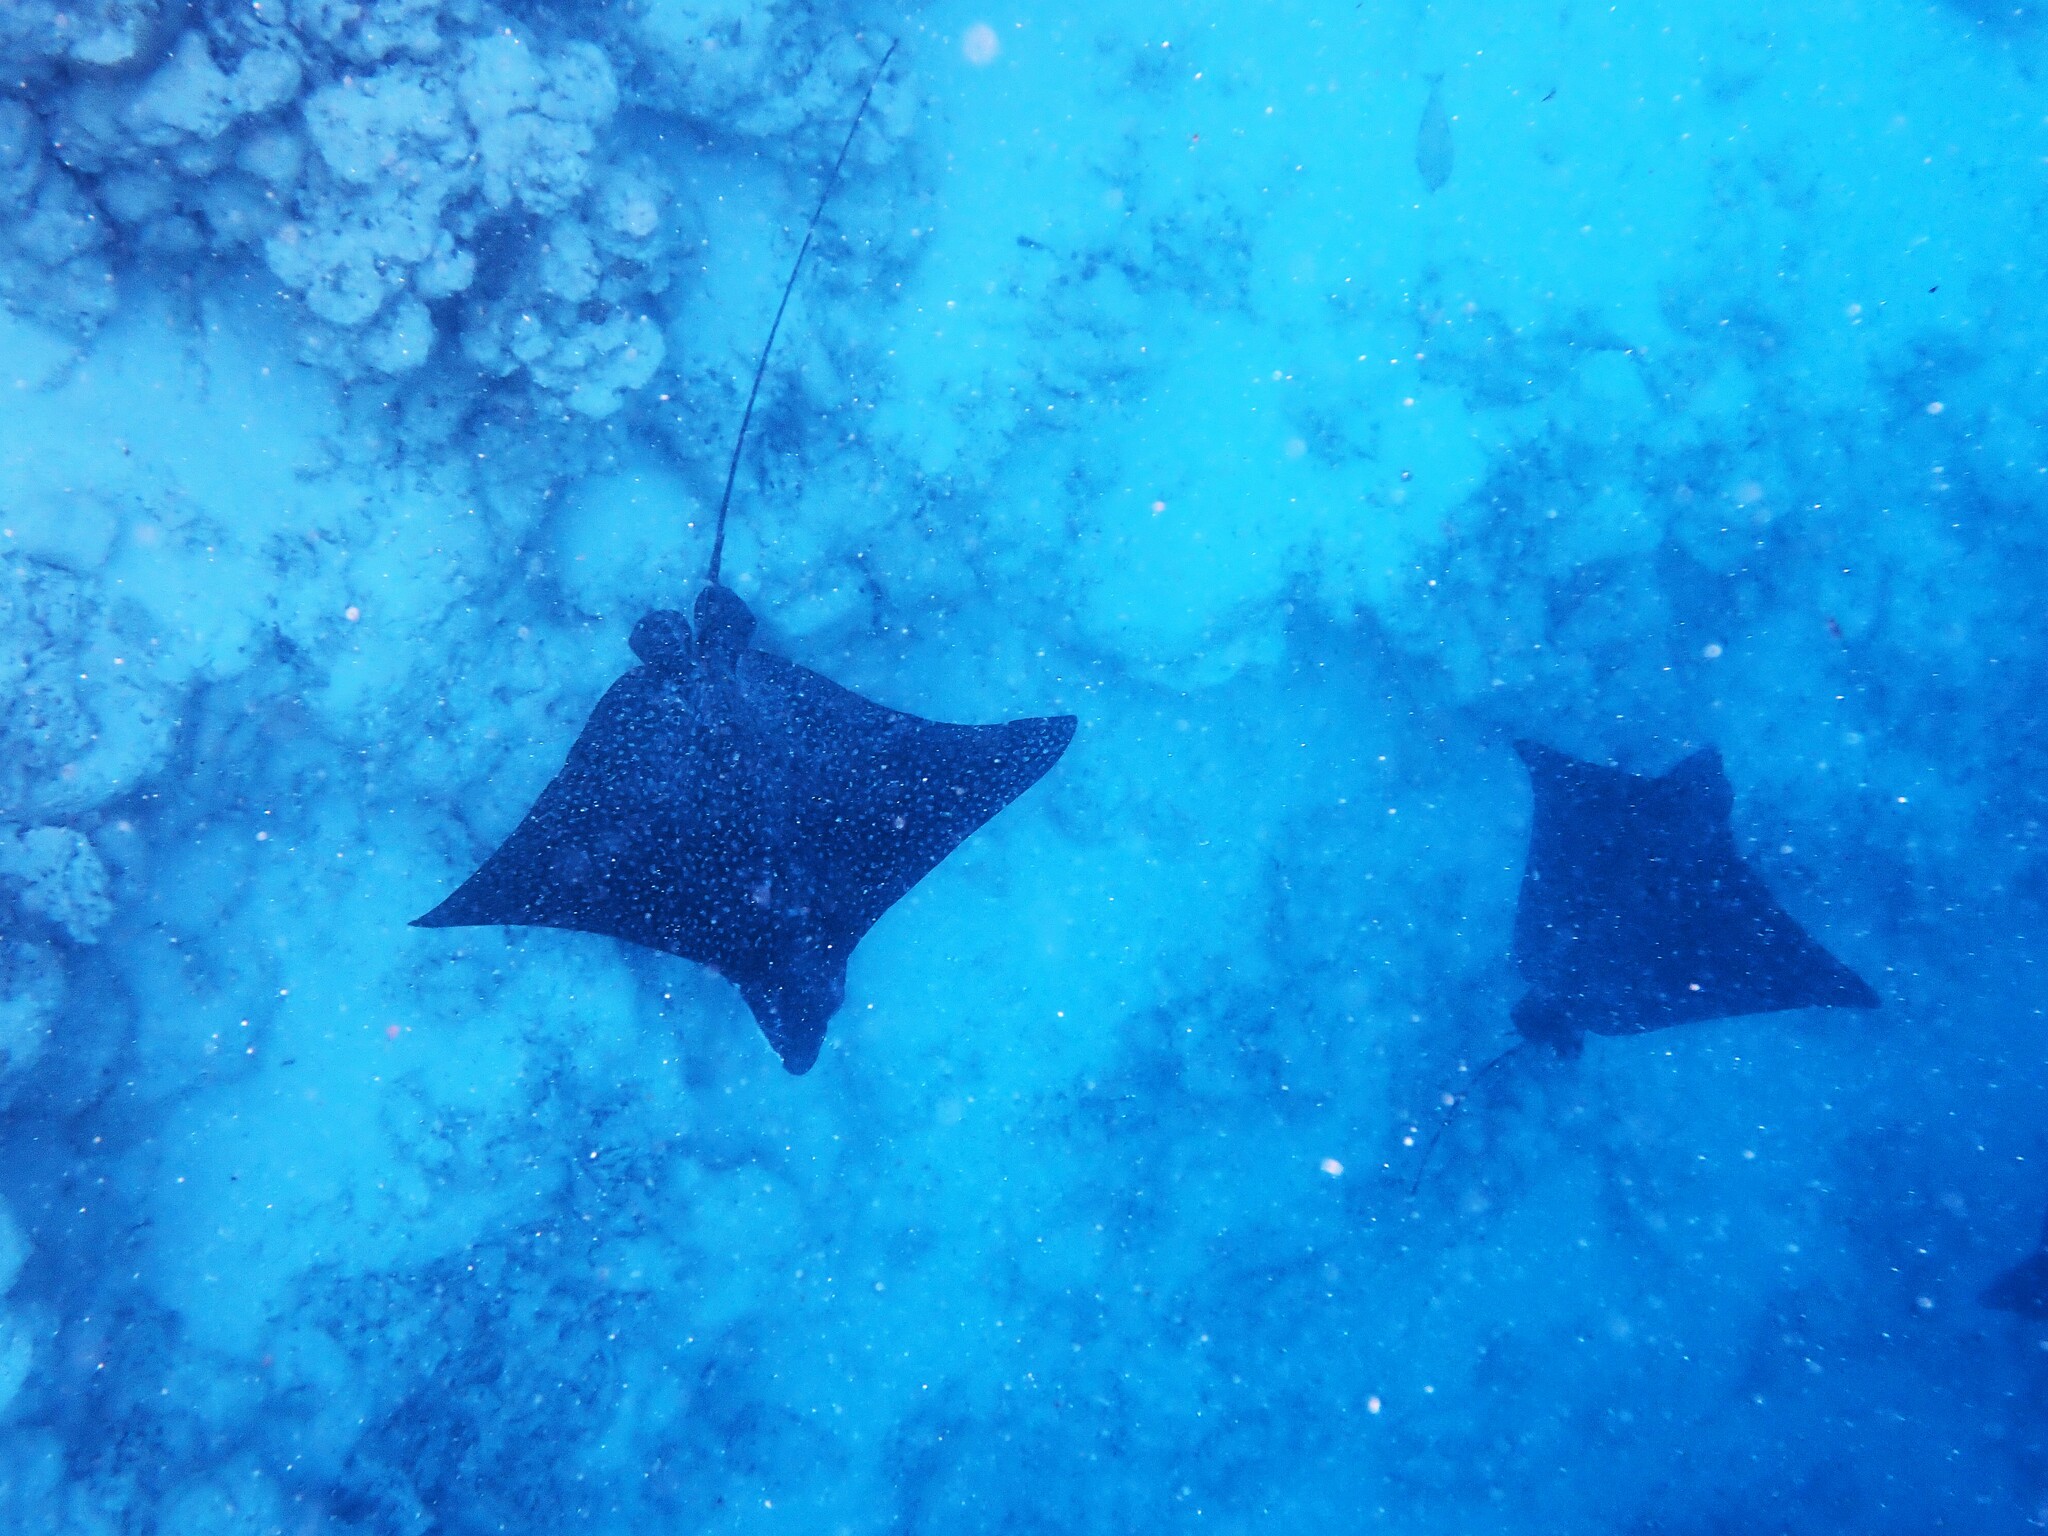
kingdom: Animalia
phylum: Chordata
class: Elasmobranchii
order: Myliobatiformes
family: Myliobatidae
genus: Aetobatus
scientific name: Aetobatus ocellatus
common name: Ocellated eagle ray
